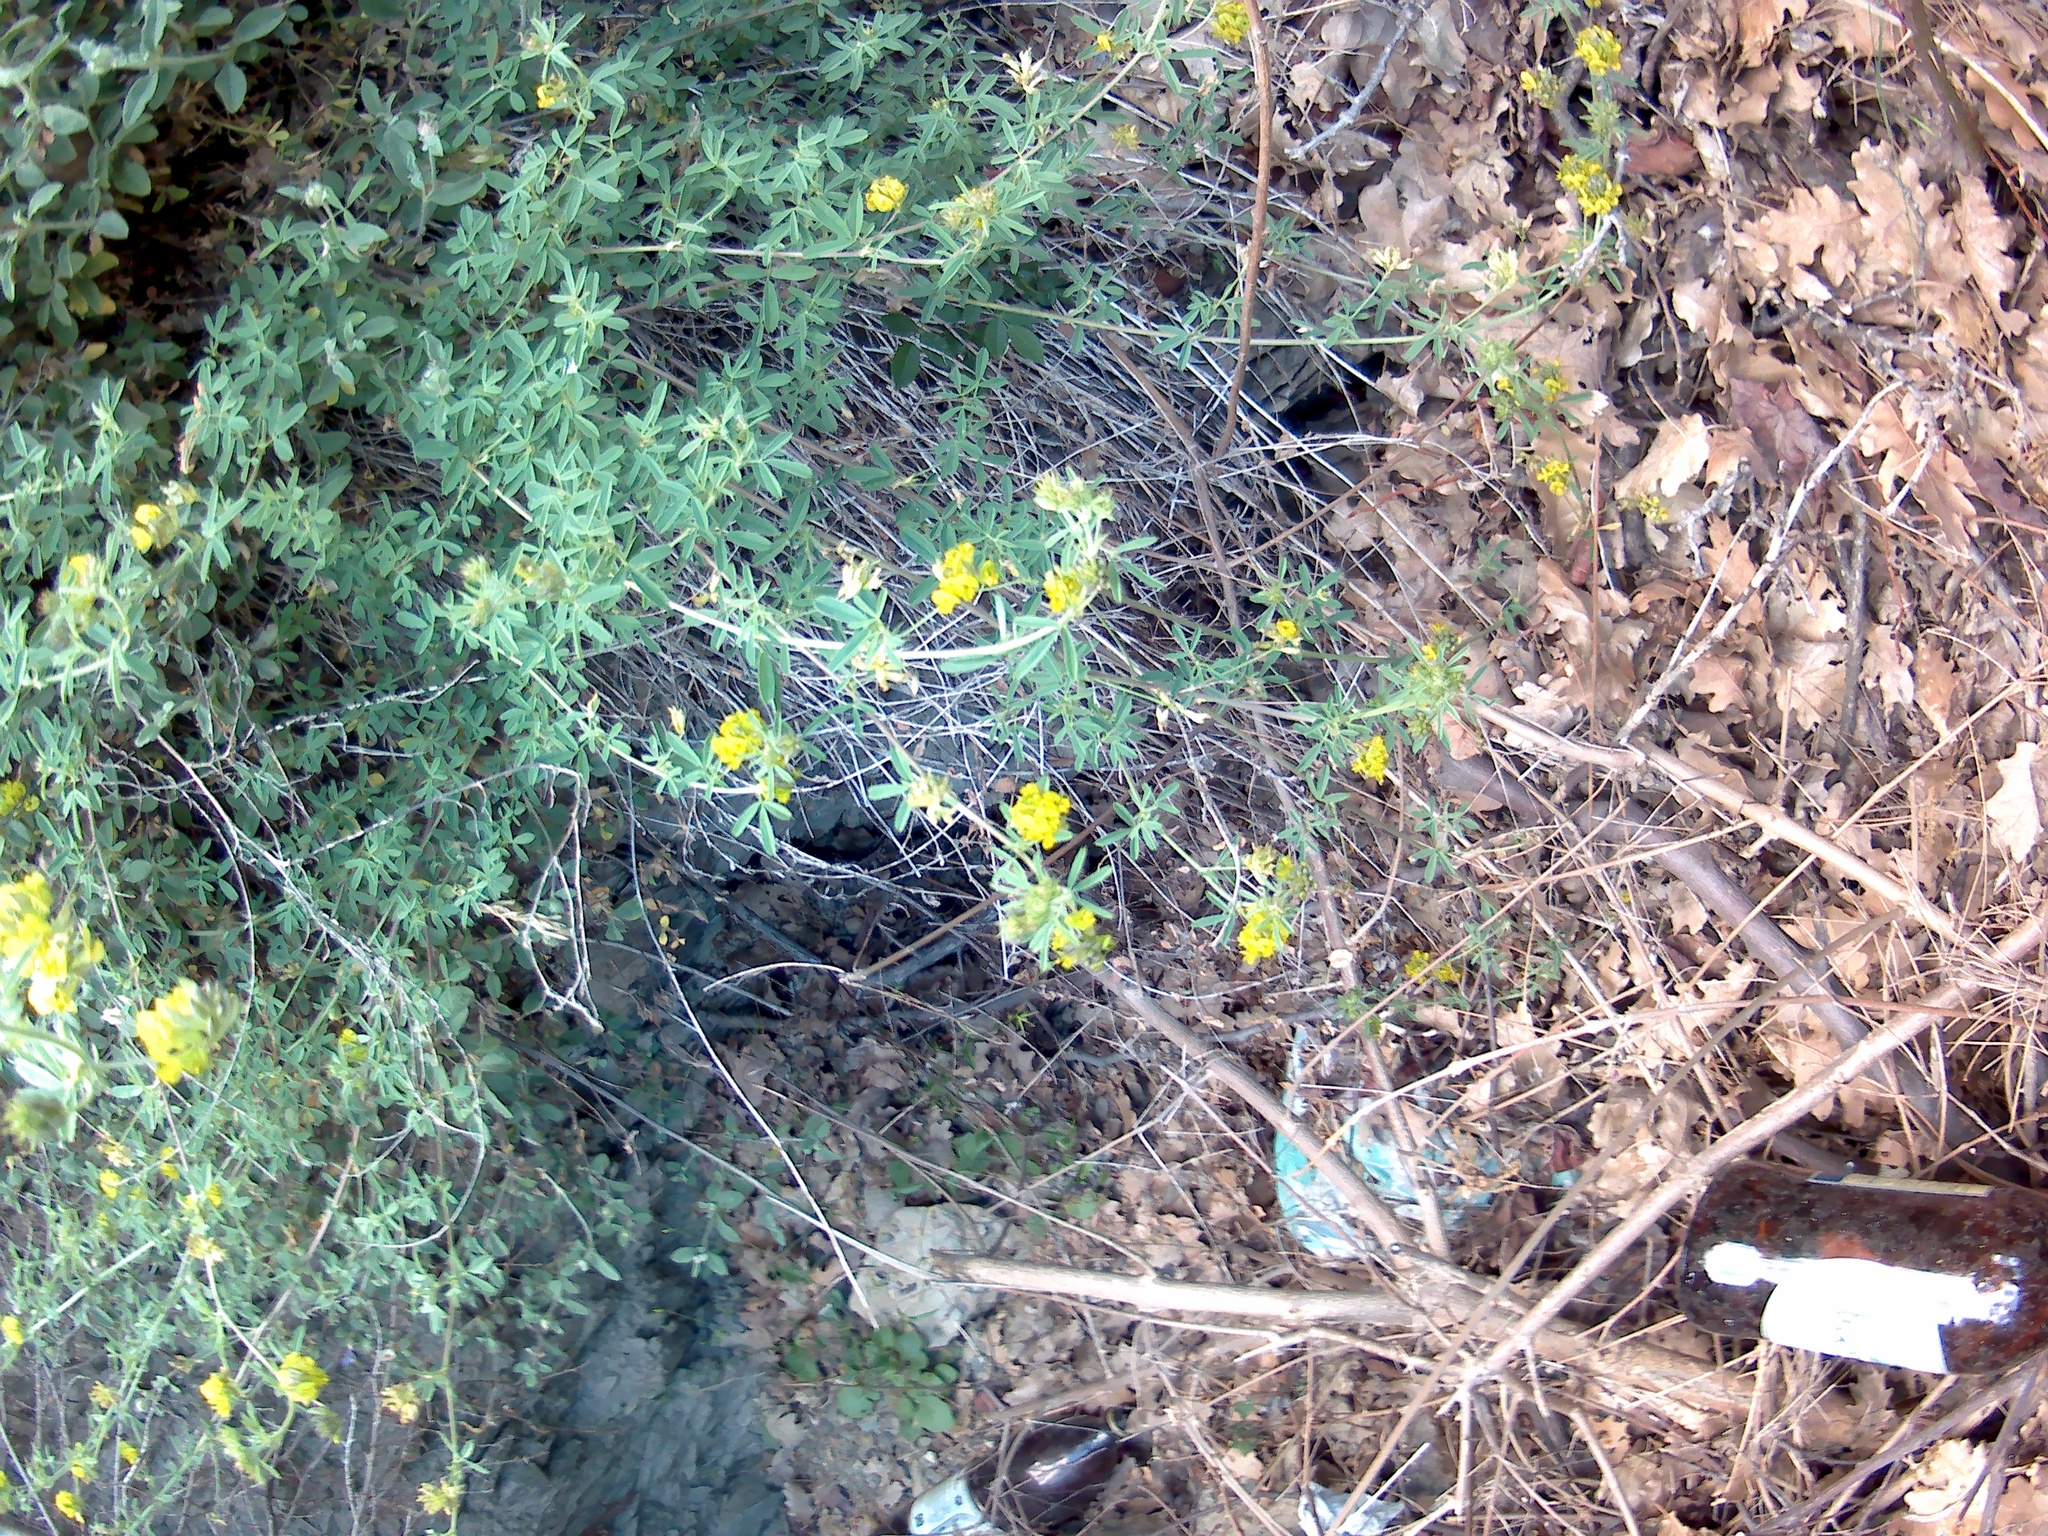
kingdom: Plantae
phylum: Tracheophyta
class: Magnoliopsida
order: Fabales
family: Fabaceae
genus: Medicago
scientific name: Medicago falcata
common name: Sickle medick
